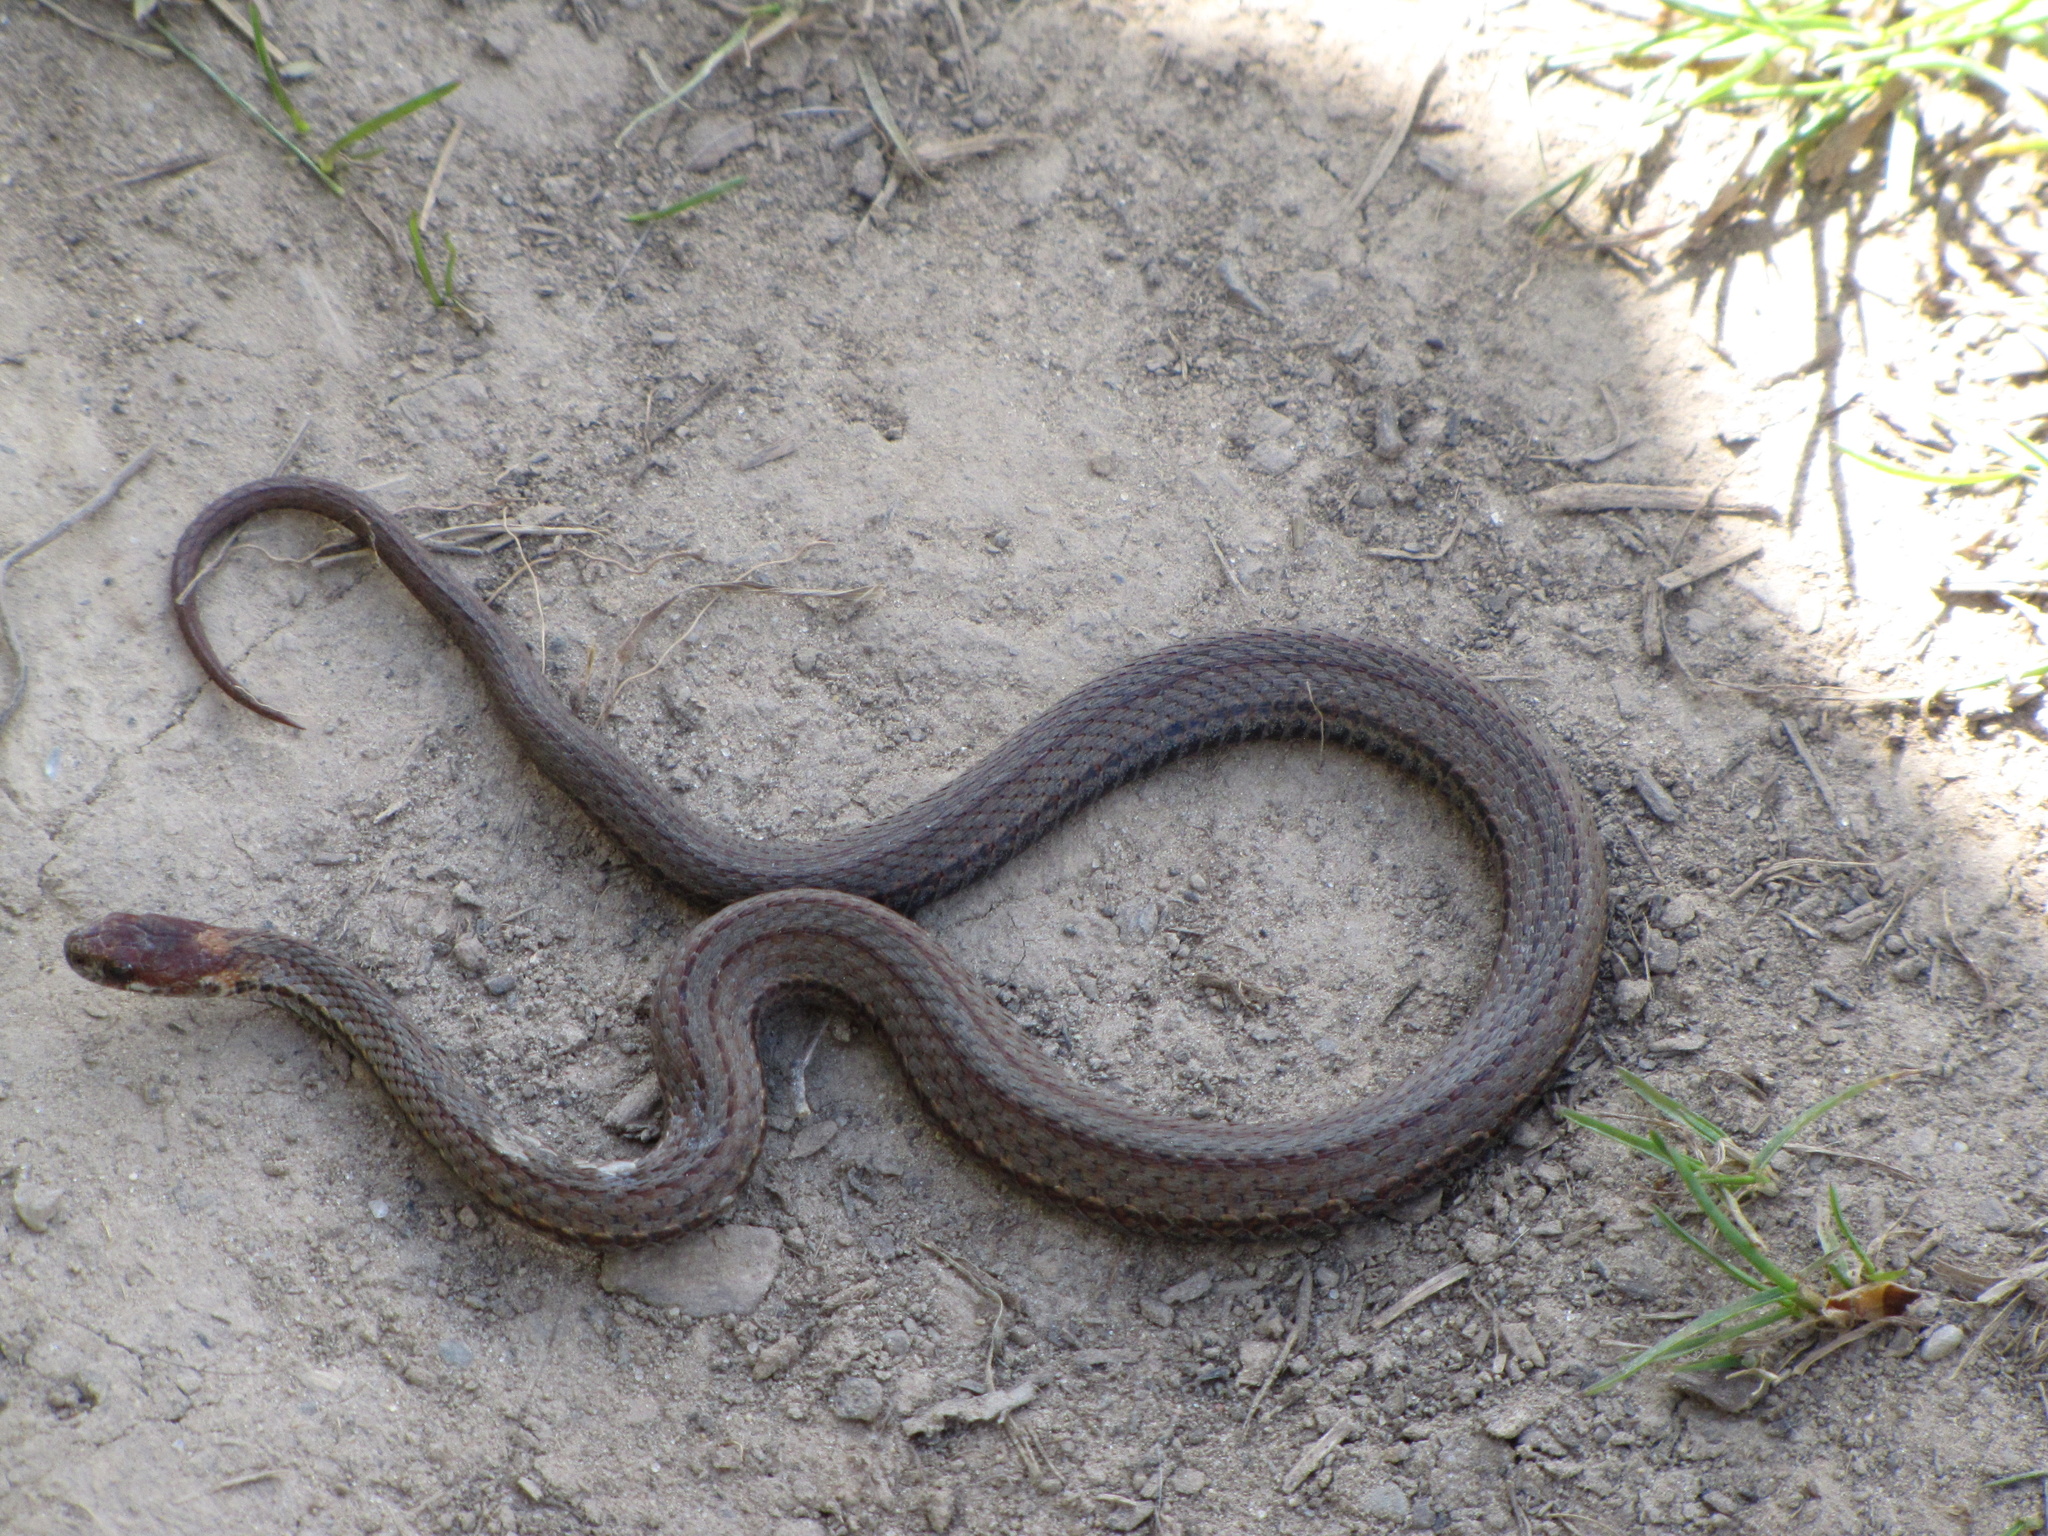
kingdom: Animalia
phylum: Chordata
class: Squamata
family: Colubridae
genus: Storeria
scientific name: Storeria occipitomaculata
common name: Redbelly snake
